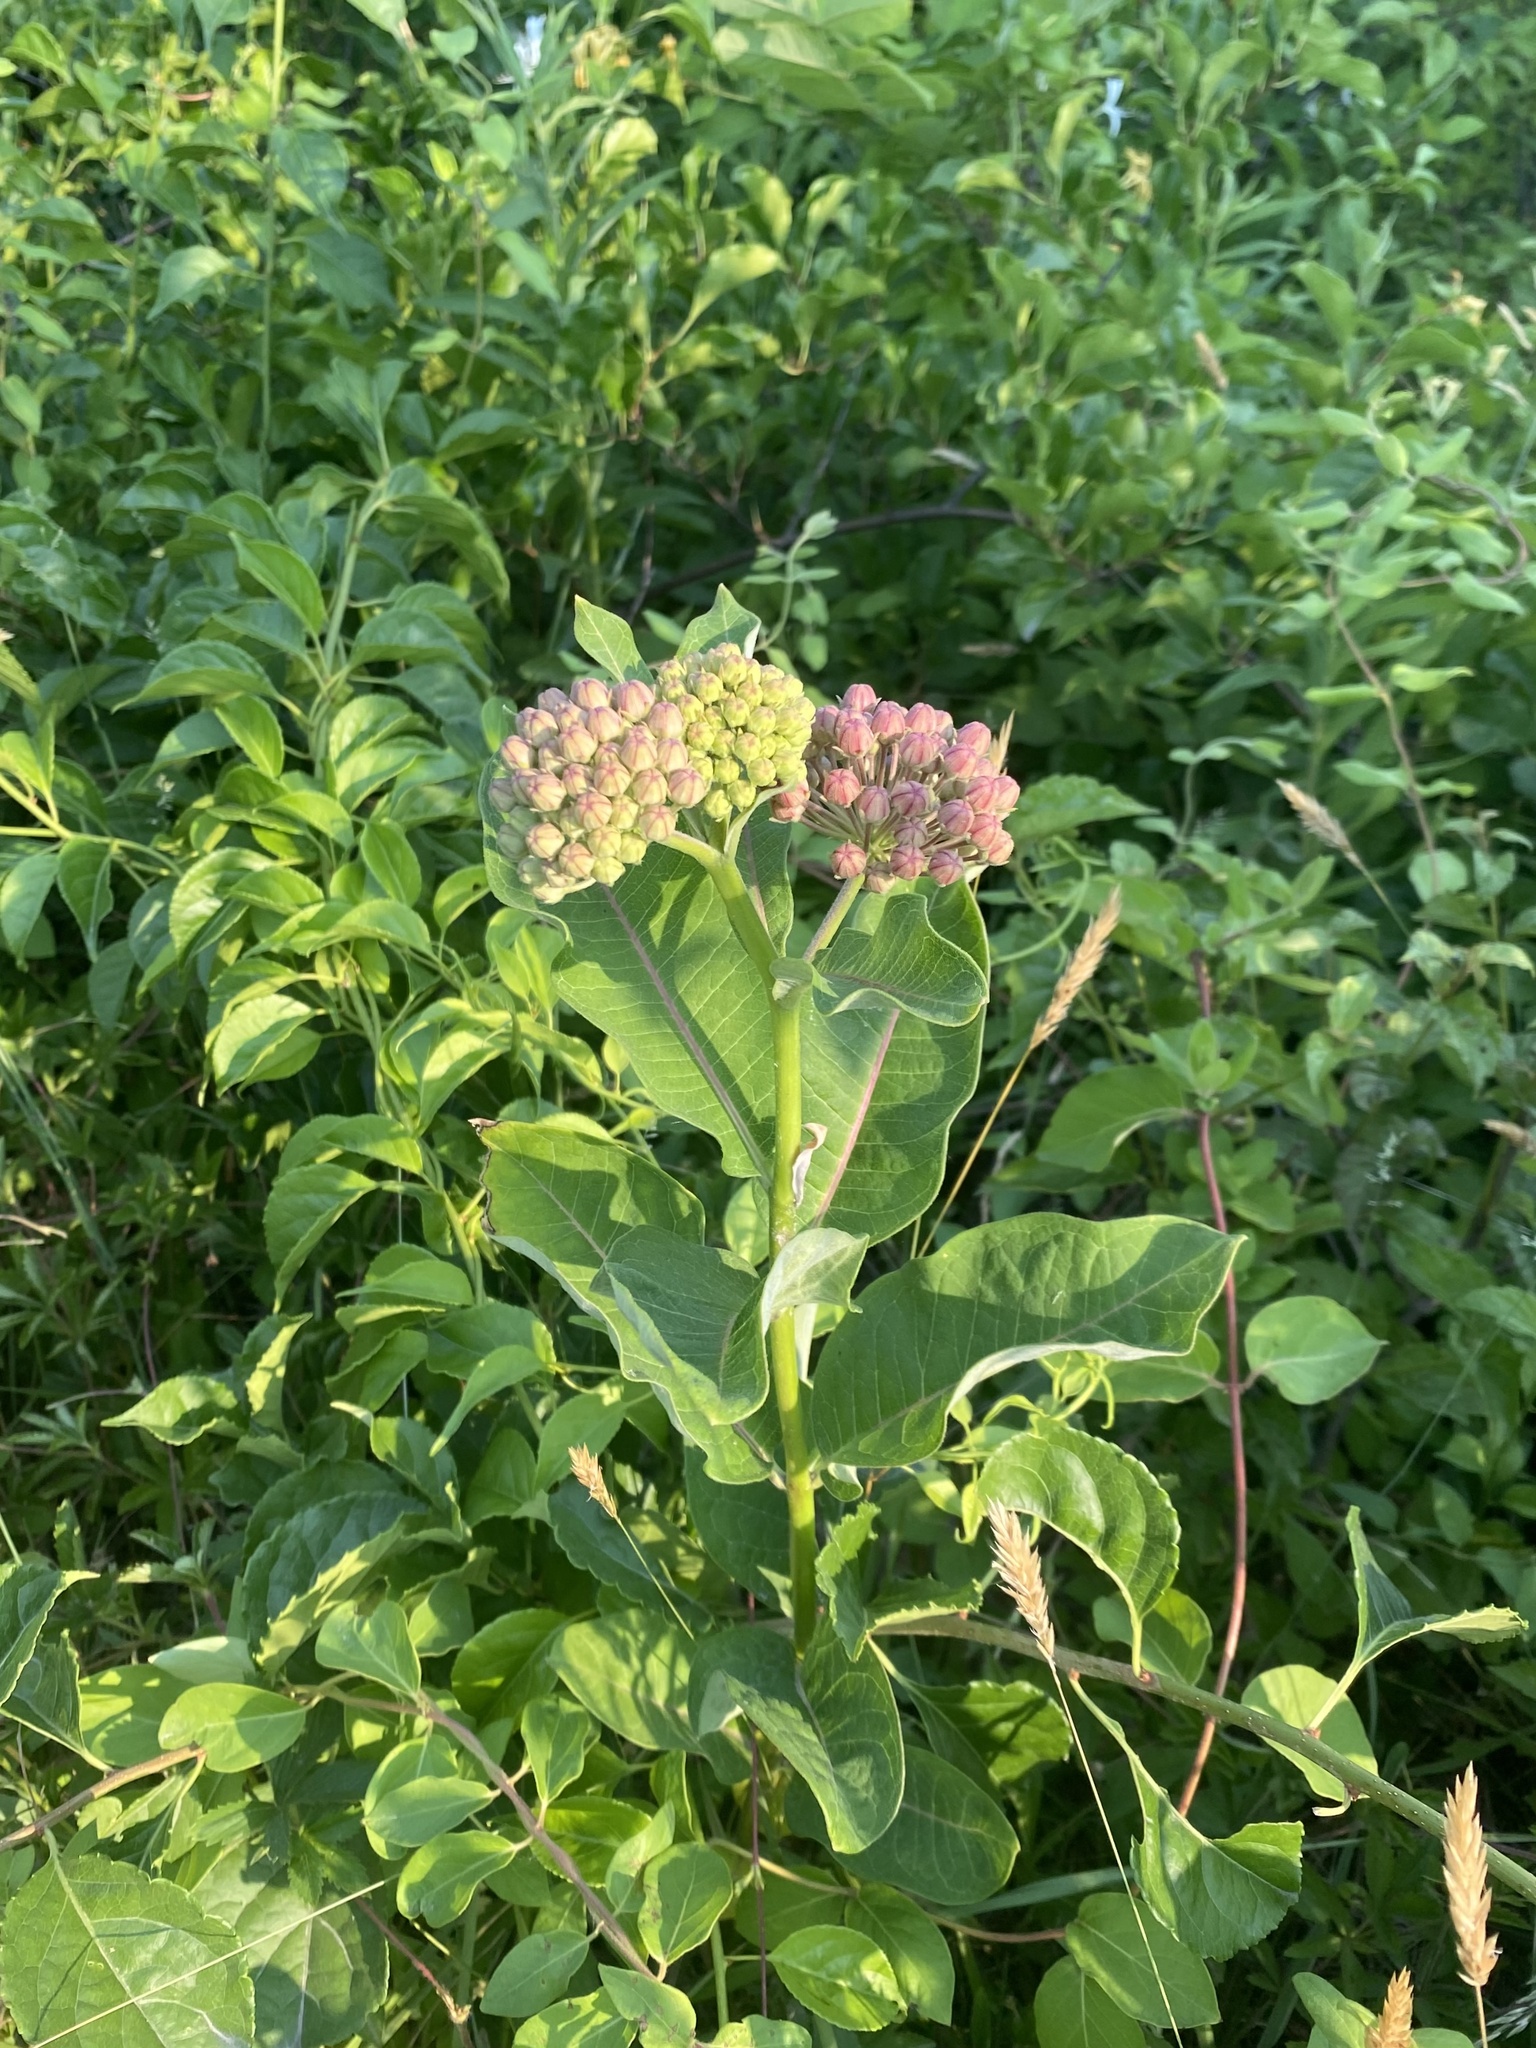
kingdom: Plantae
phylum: Tracheophyta
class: Magnoliopsida
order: Gentianales
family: Apocynaceae
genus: Asclepias
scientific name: Asclepias syriaca
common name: Common milkweed
